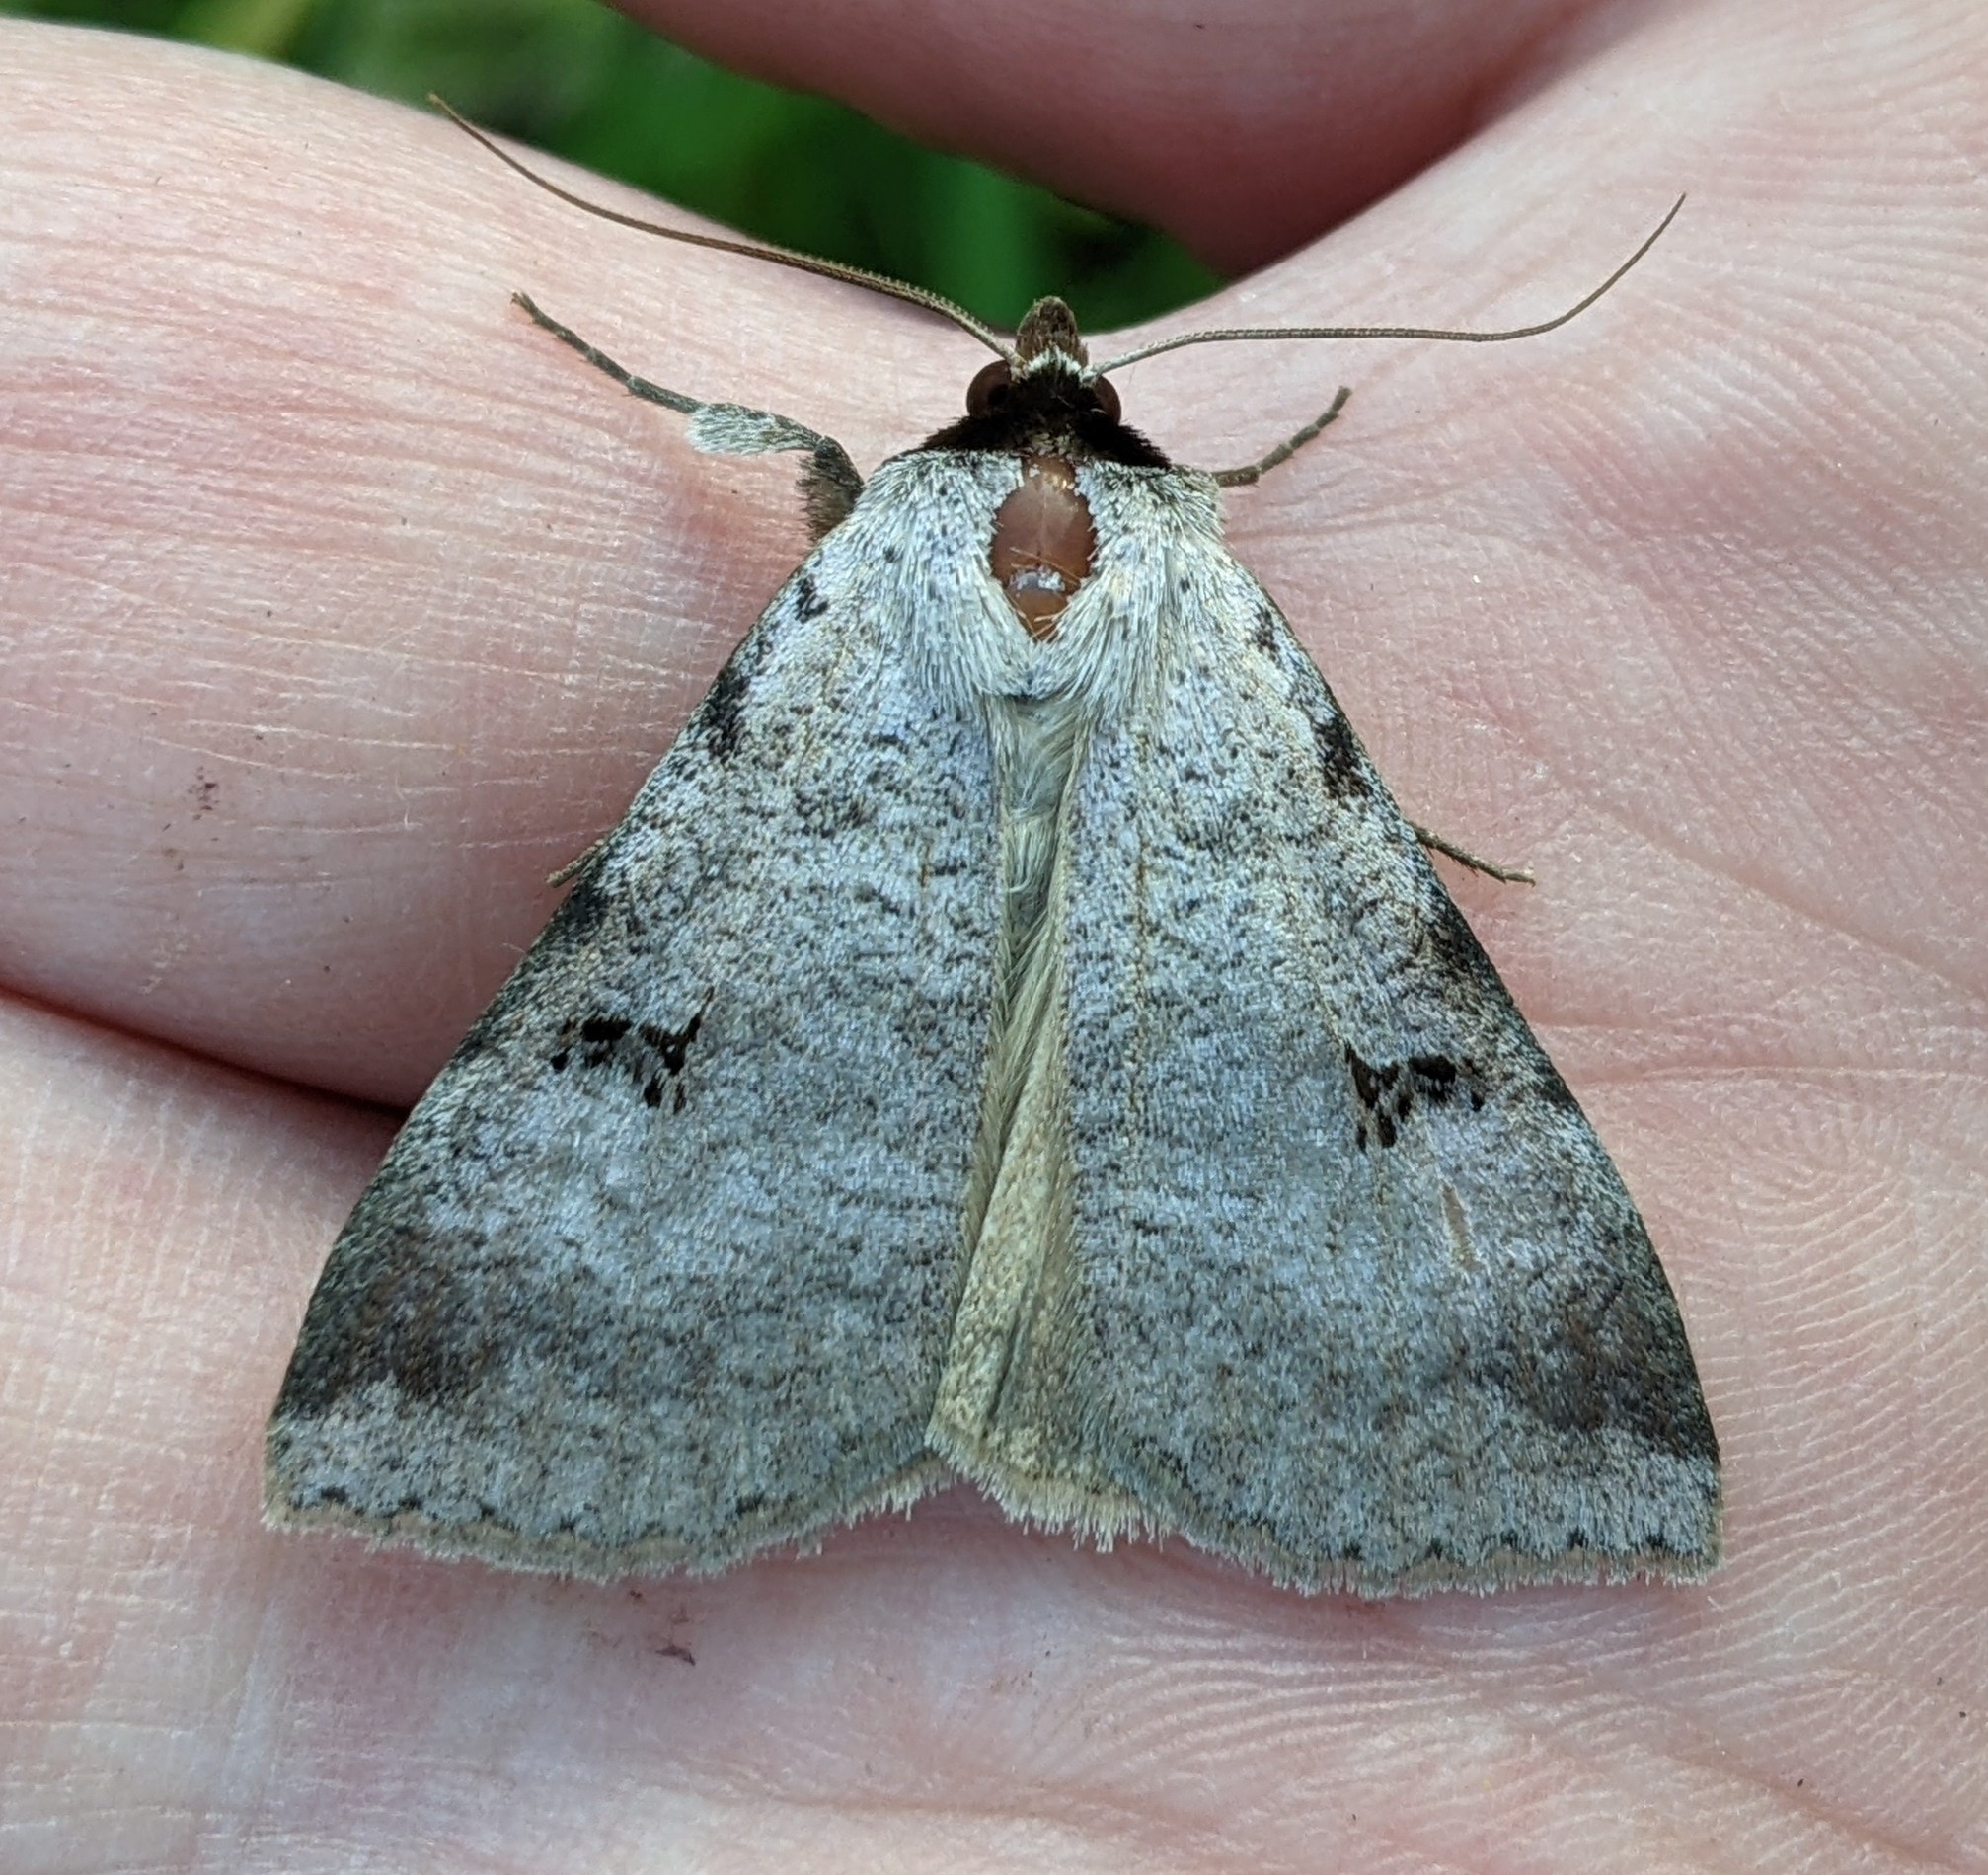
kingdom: Animalia
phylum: Arthropoda
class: Insecta
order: Lepidoptera
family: Erebidae
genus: Lygephila
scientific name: Lygephila victoria
